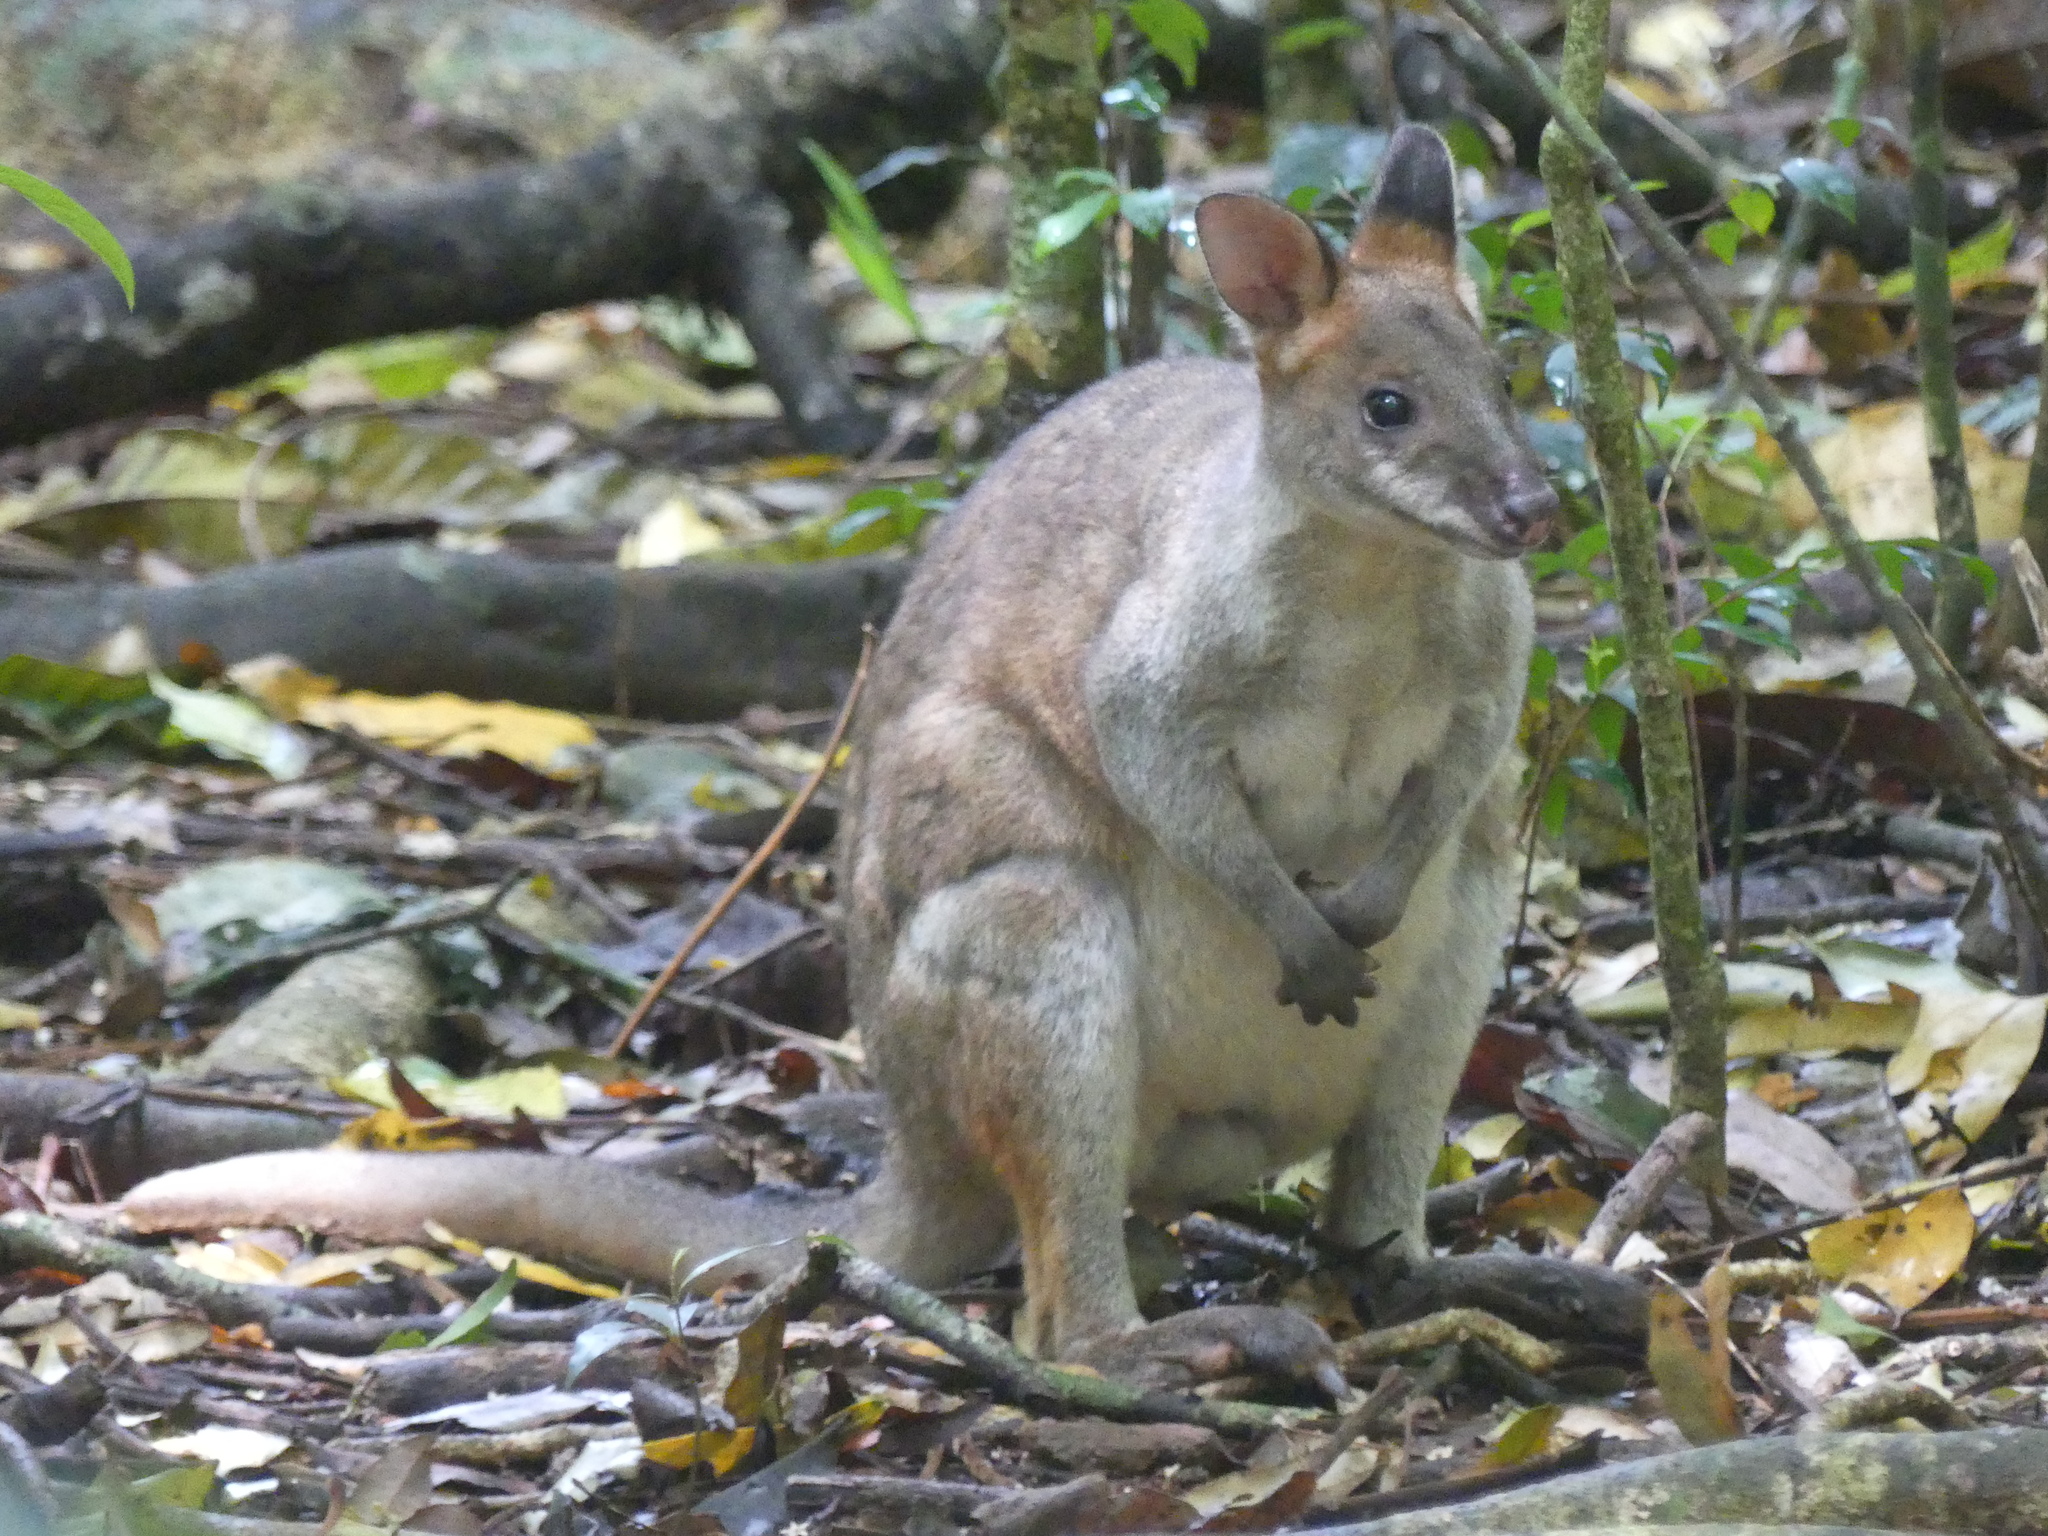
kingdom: Animalia
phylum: Chordata
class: Mammalia
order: Diprotodontia
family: Macropodidae
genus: Thylogale
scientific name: Thylogale stigmatica
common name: Red-legged pademelon
